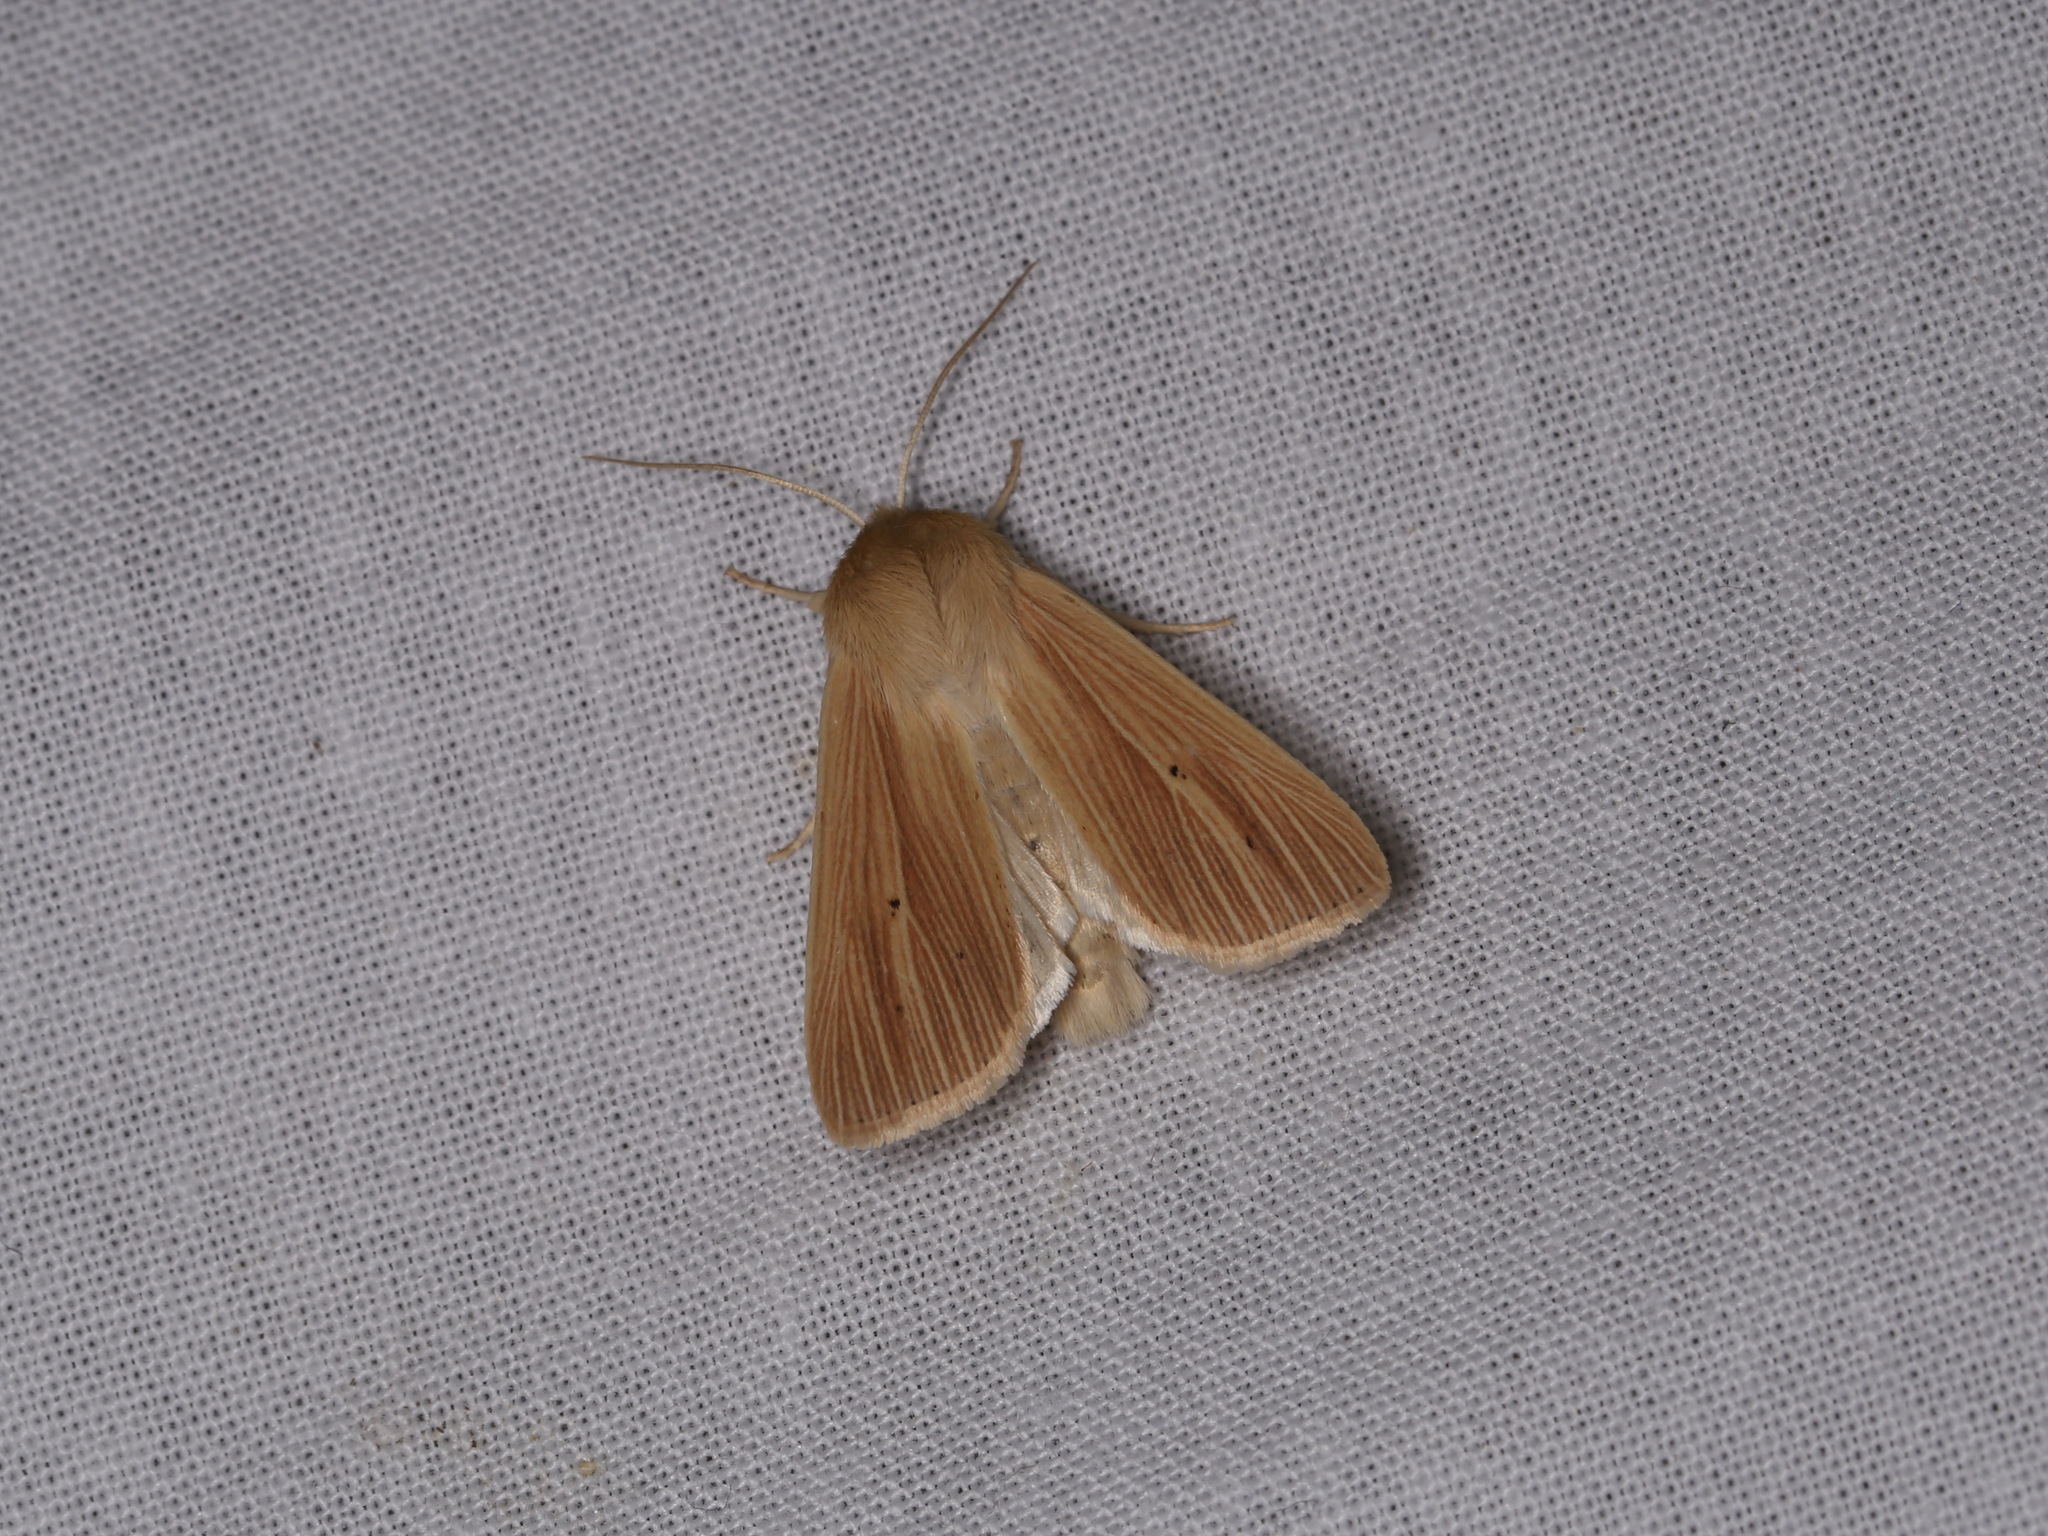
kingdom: Animalia
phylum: Arthropoda
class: Insecta
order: Lepidoptera
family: Noctuidae
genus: Mythimna
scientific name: Mythimna impura
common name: Smoky wainscot
